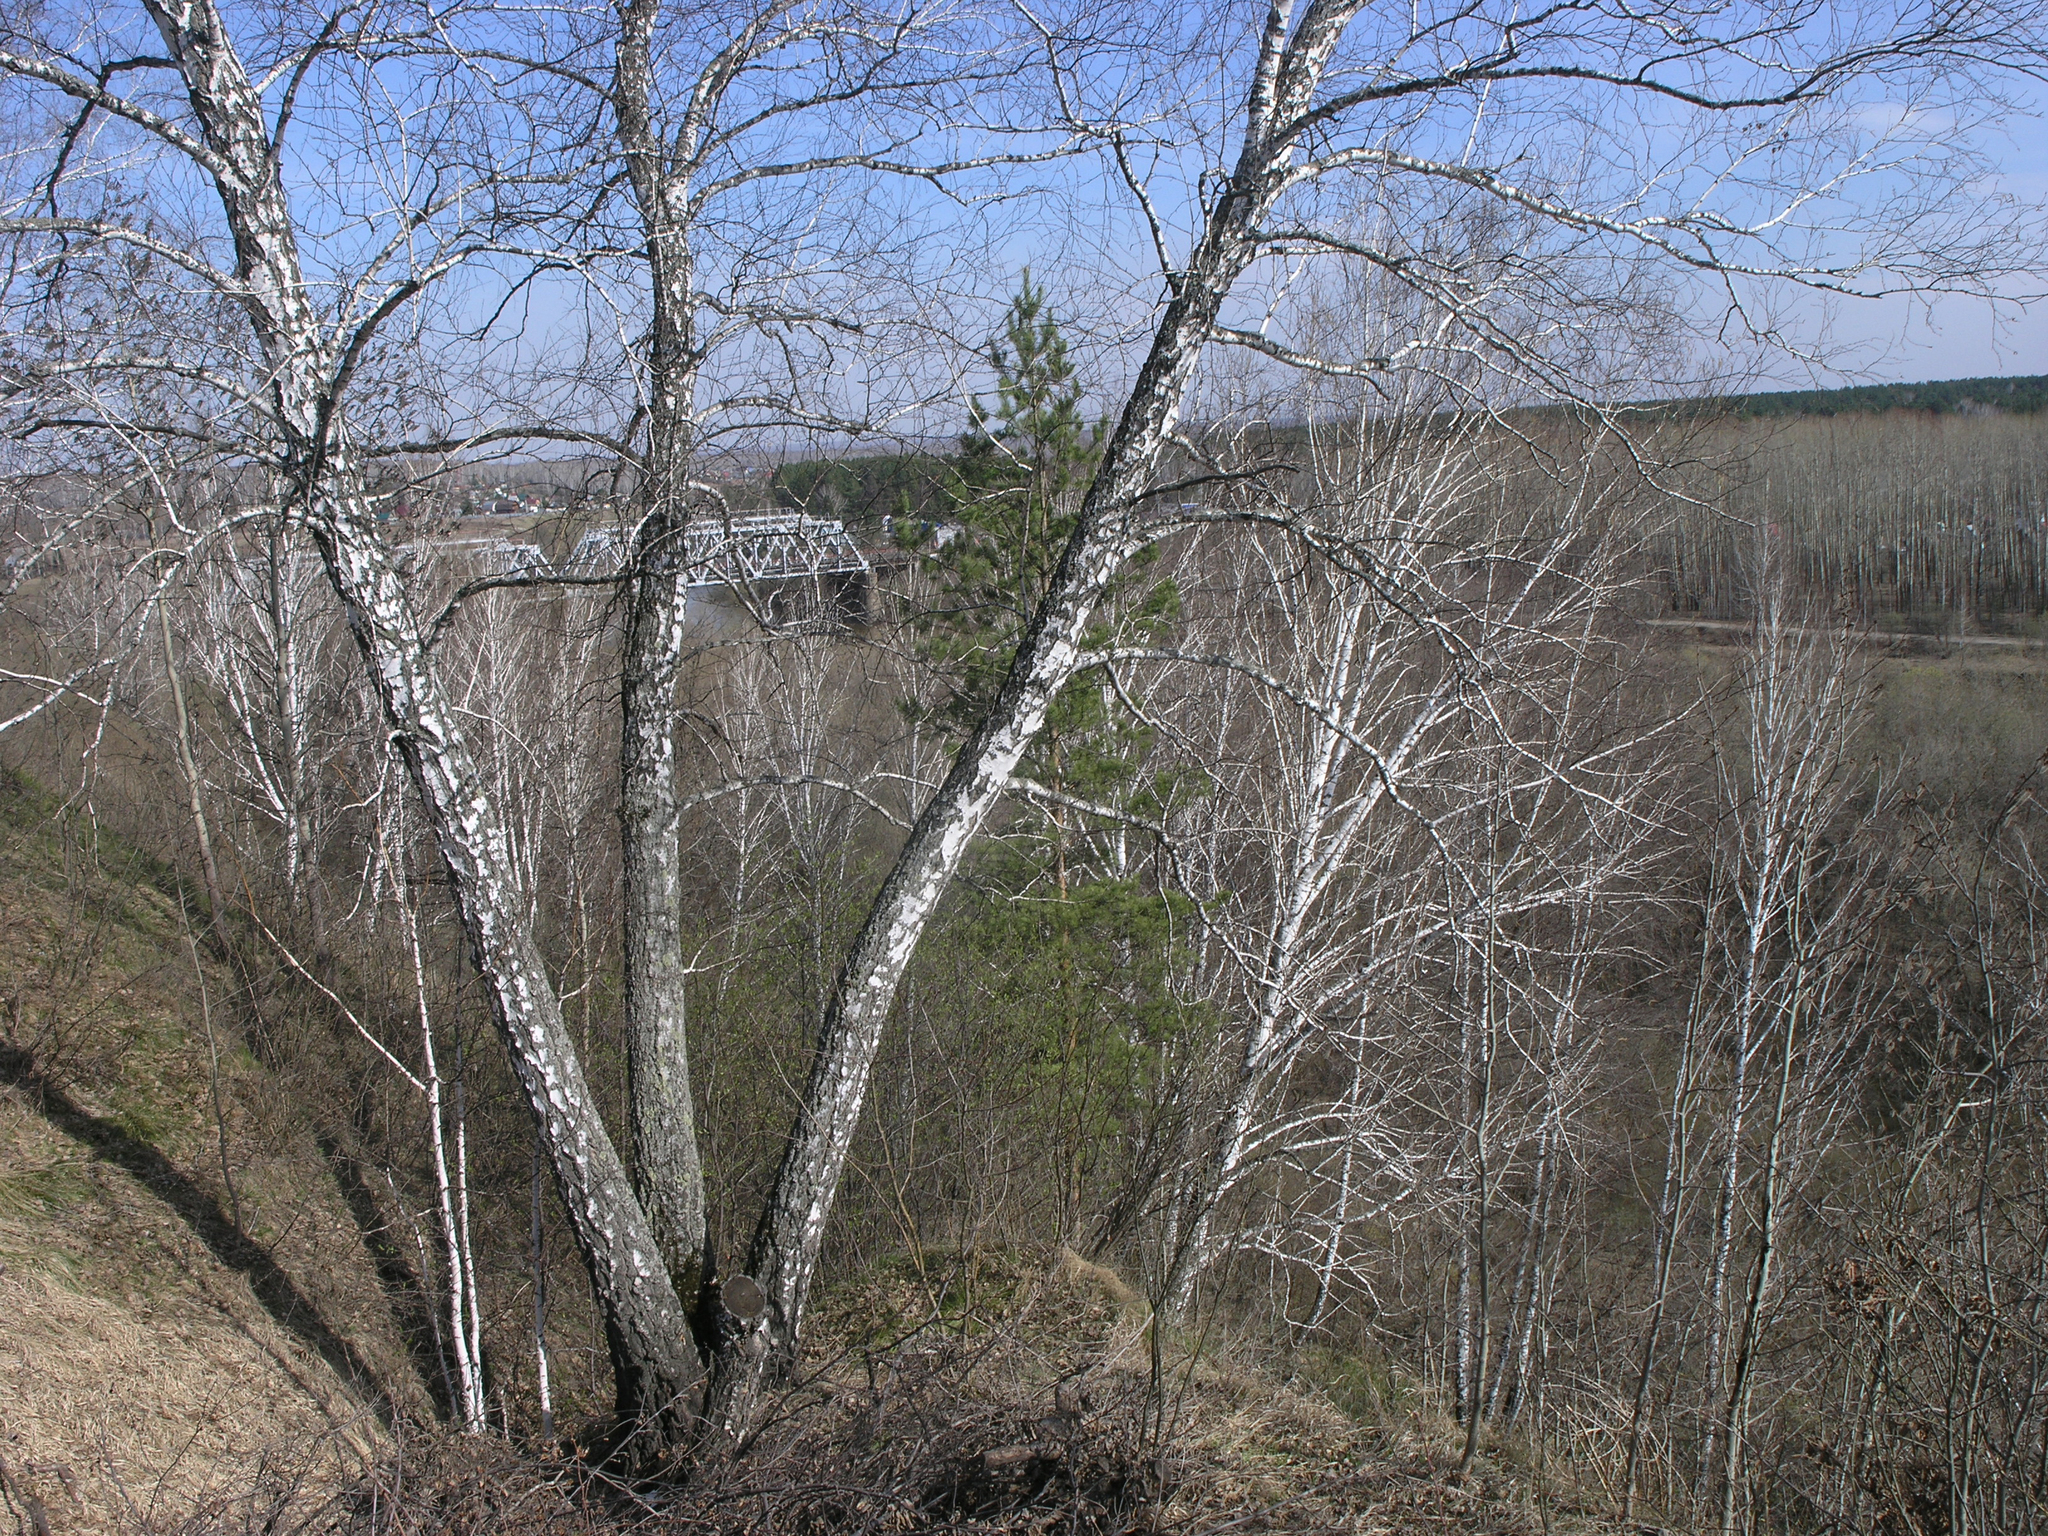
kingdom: Plantae
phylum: Tracheophyta
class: Magnoliopsida
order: Fagales
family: Betulaceae
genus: Betula
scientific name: Betula pendula
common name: Silver birch
